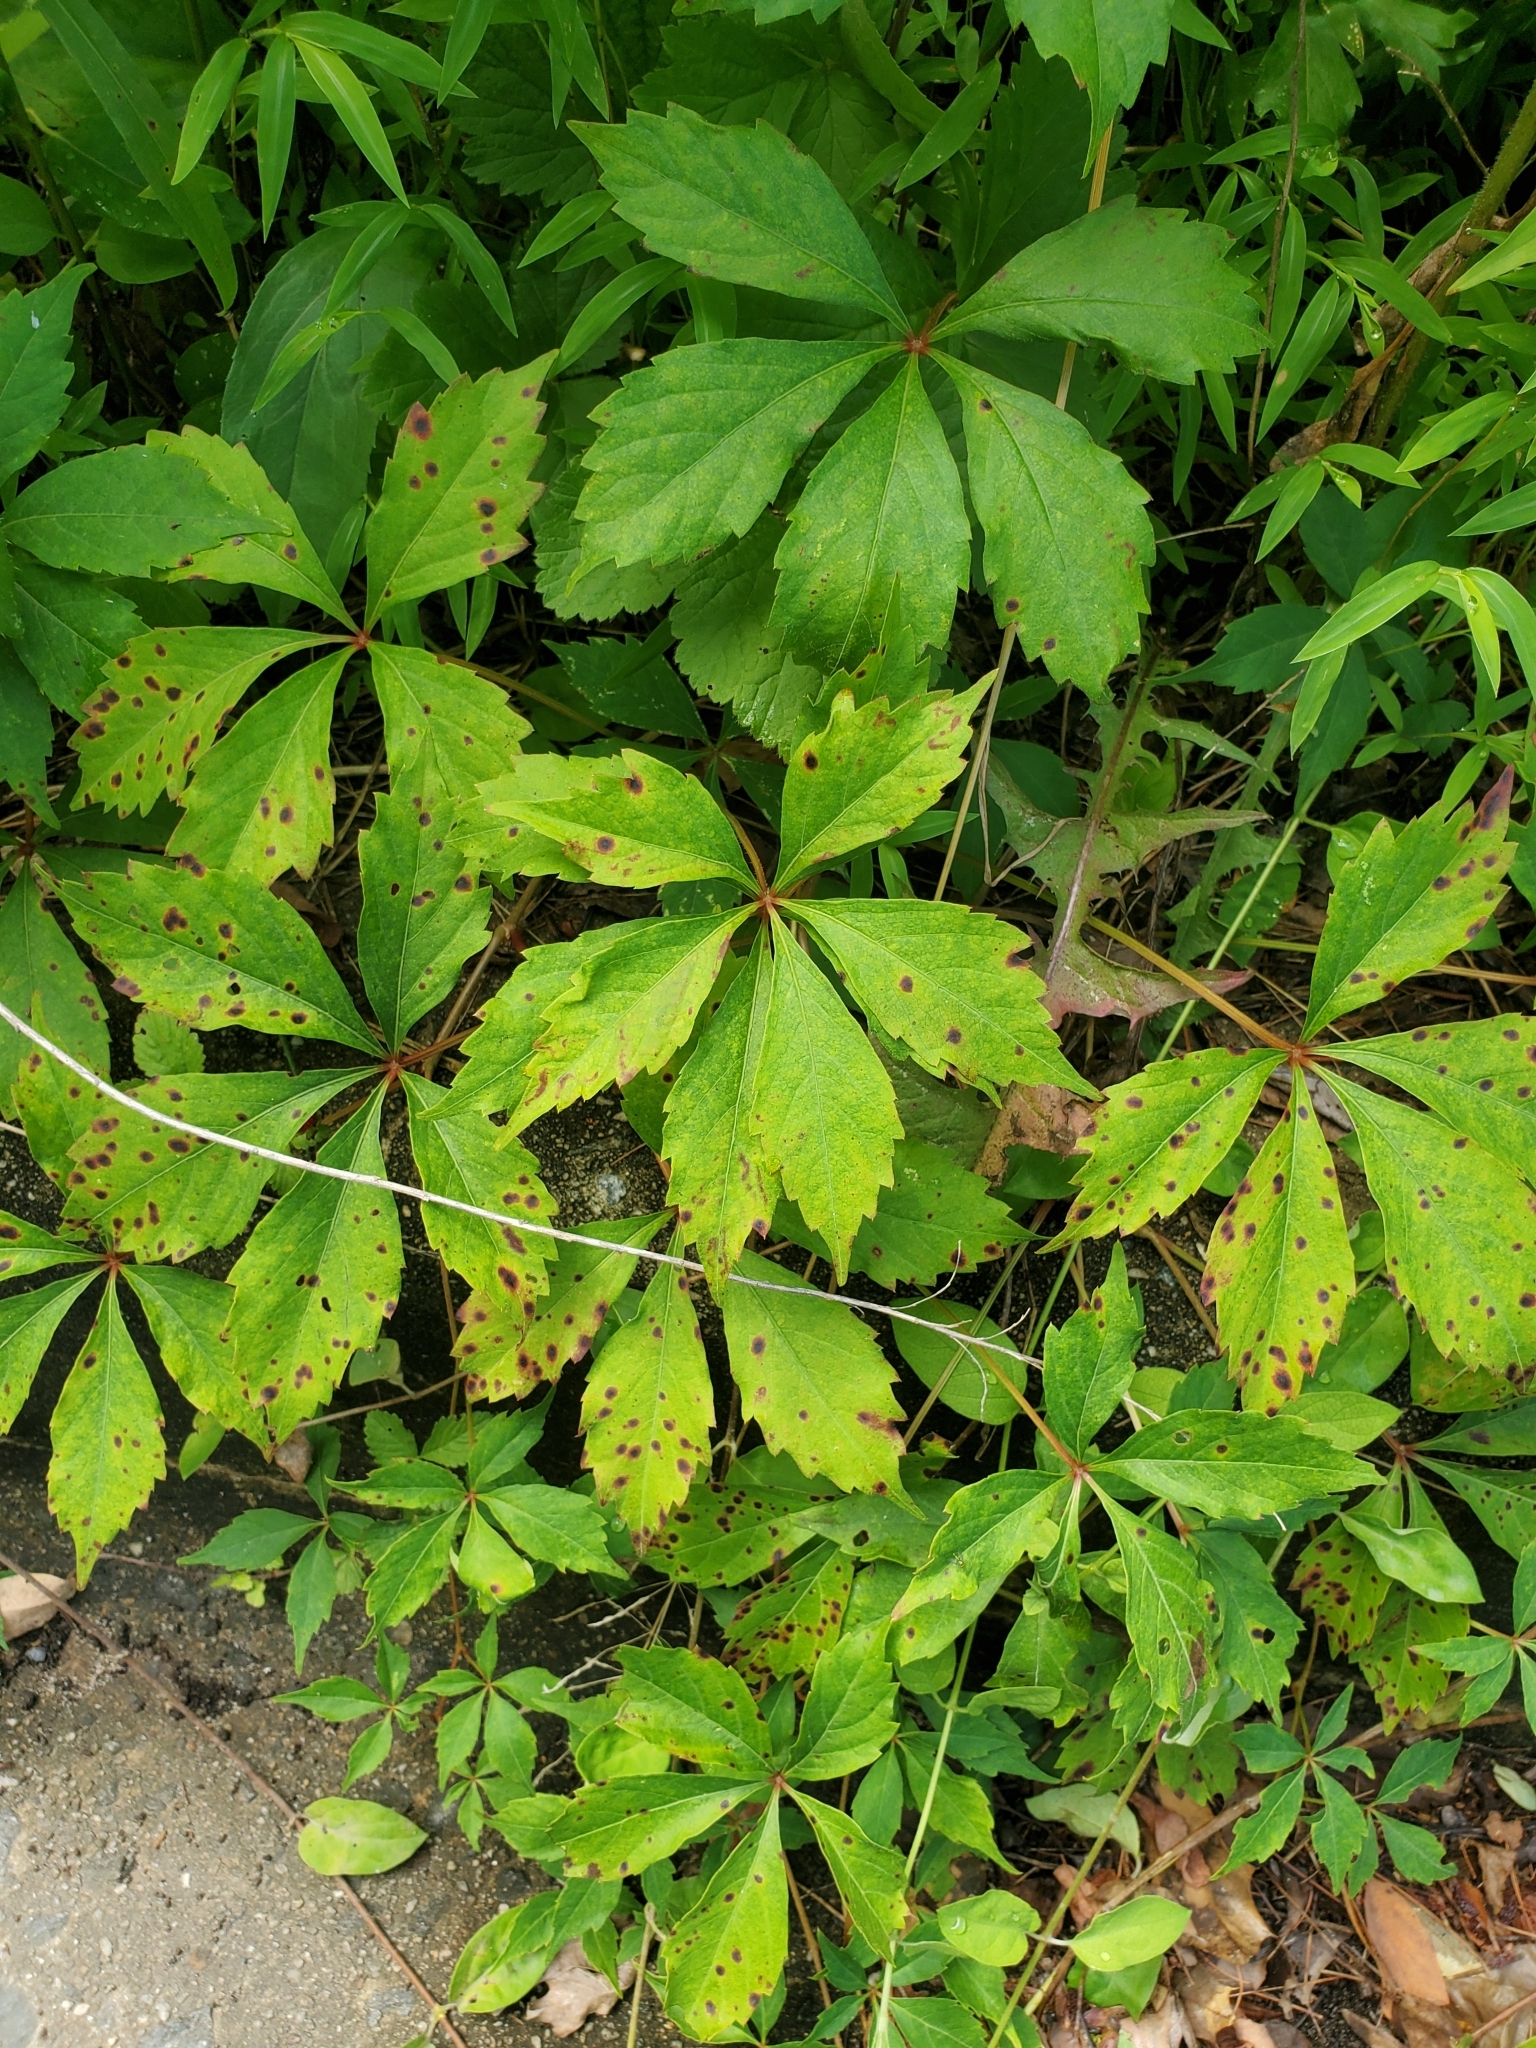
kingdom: Plantae
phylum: Tracheophyta
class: Magnoliopsida
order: Vitales
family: Vitaceae
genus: Parthenocissus
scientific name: Parthenocissus quinquefolia
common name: Virginia-creeper
